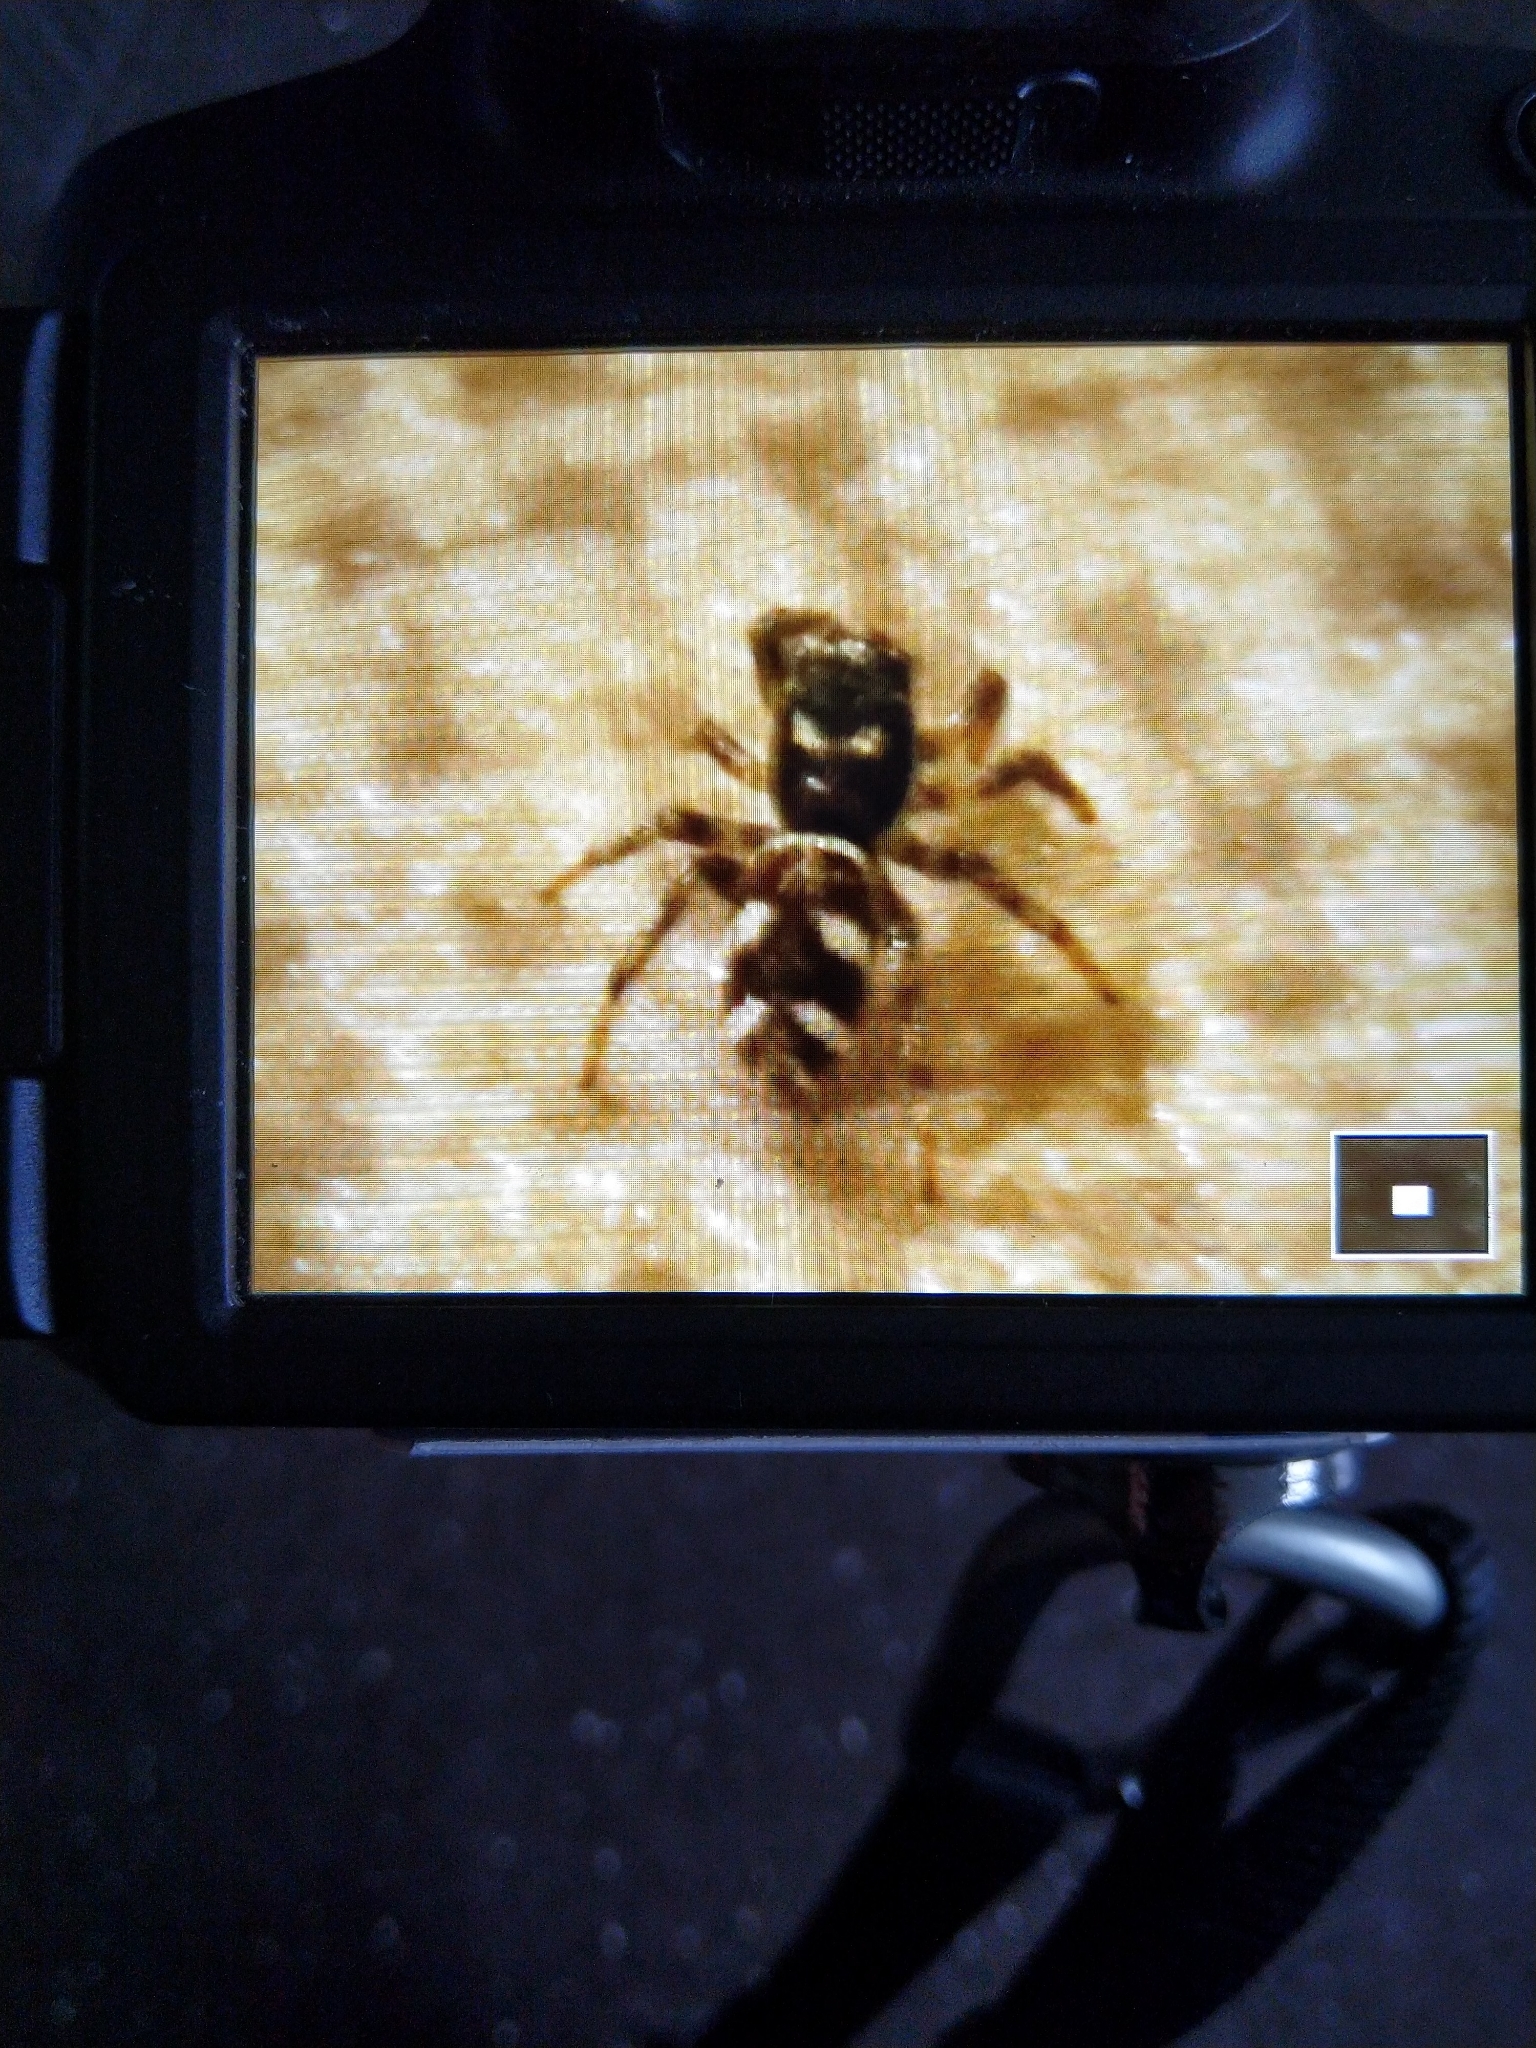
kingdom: Animalia
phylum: Arthropoda
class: Arachnida
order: Araneae
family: Salticidae
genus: Salticus
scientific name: Salticus scenicus
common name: Zebra jumper
